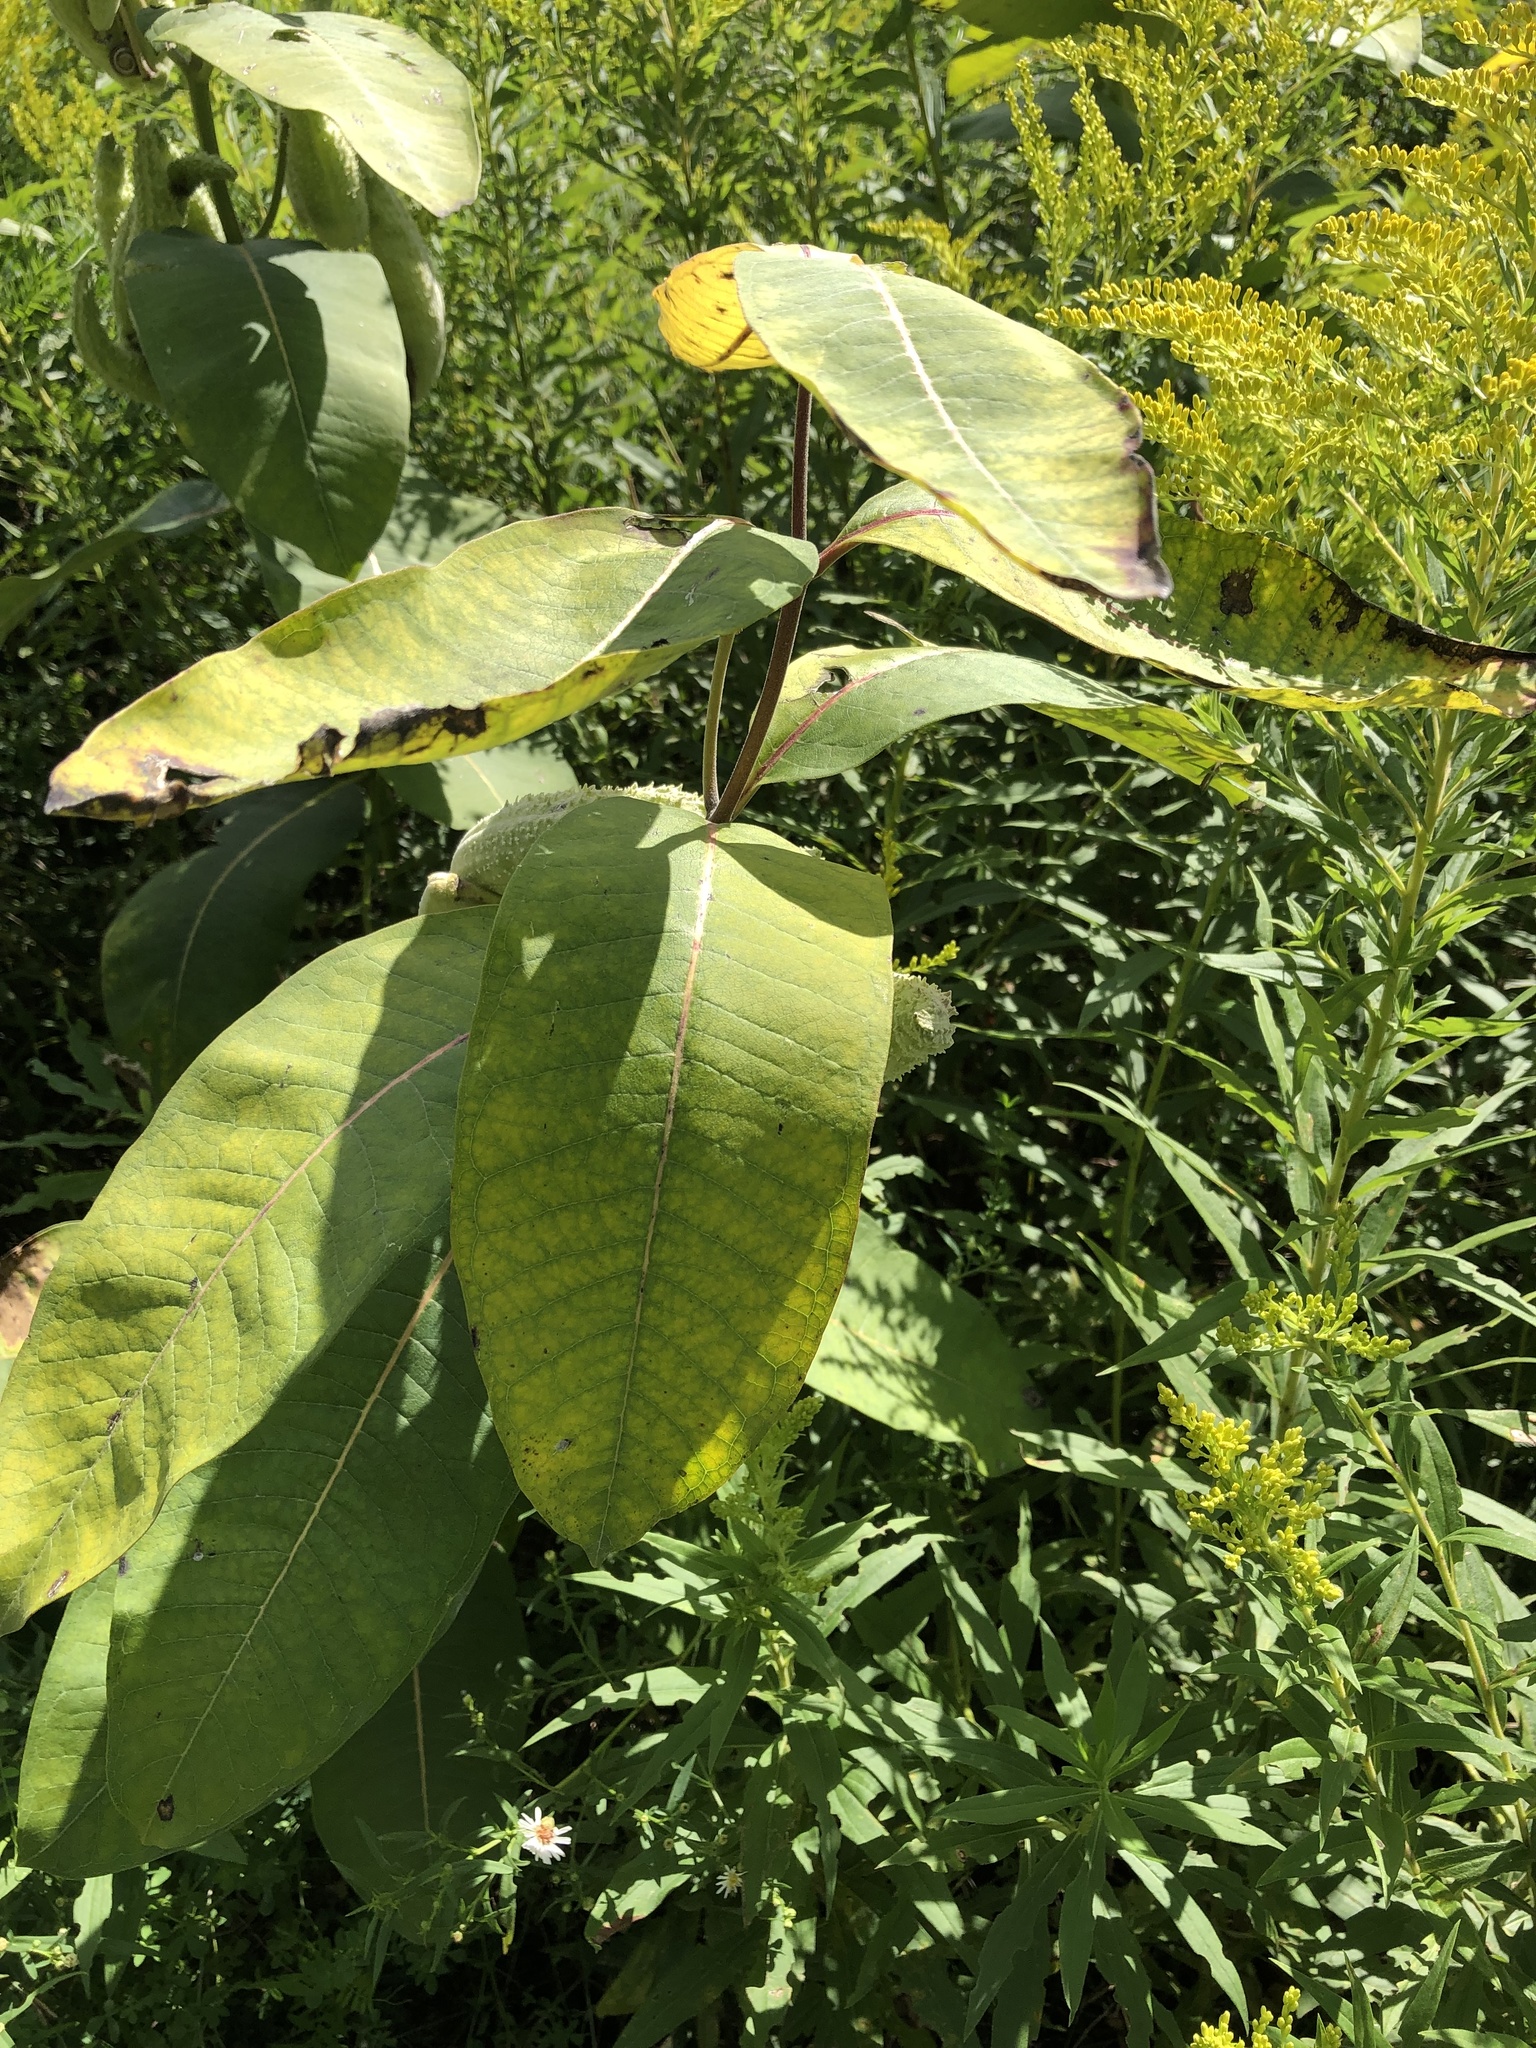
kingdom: Plantae
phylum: Tracheophyta
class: Magnoliopsida
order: Gentianales
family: Apocynaceae
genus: Asclepias
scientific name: Asclepias syriaca
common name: Common milkweed
